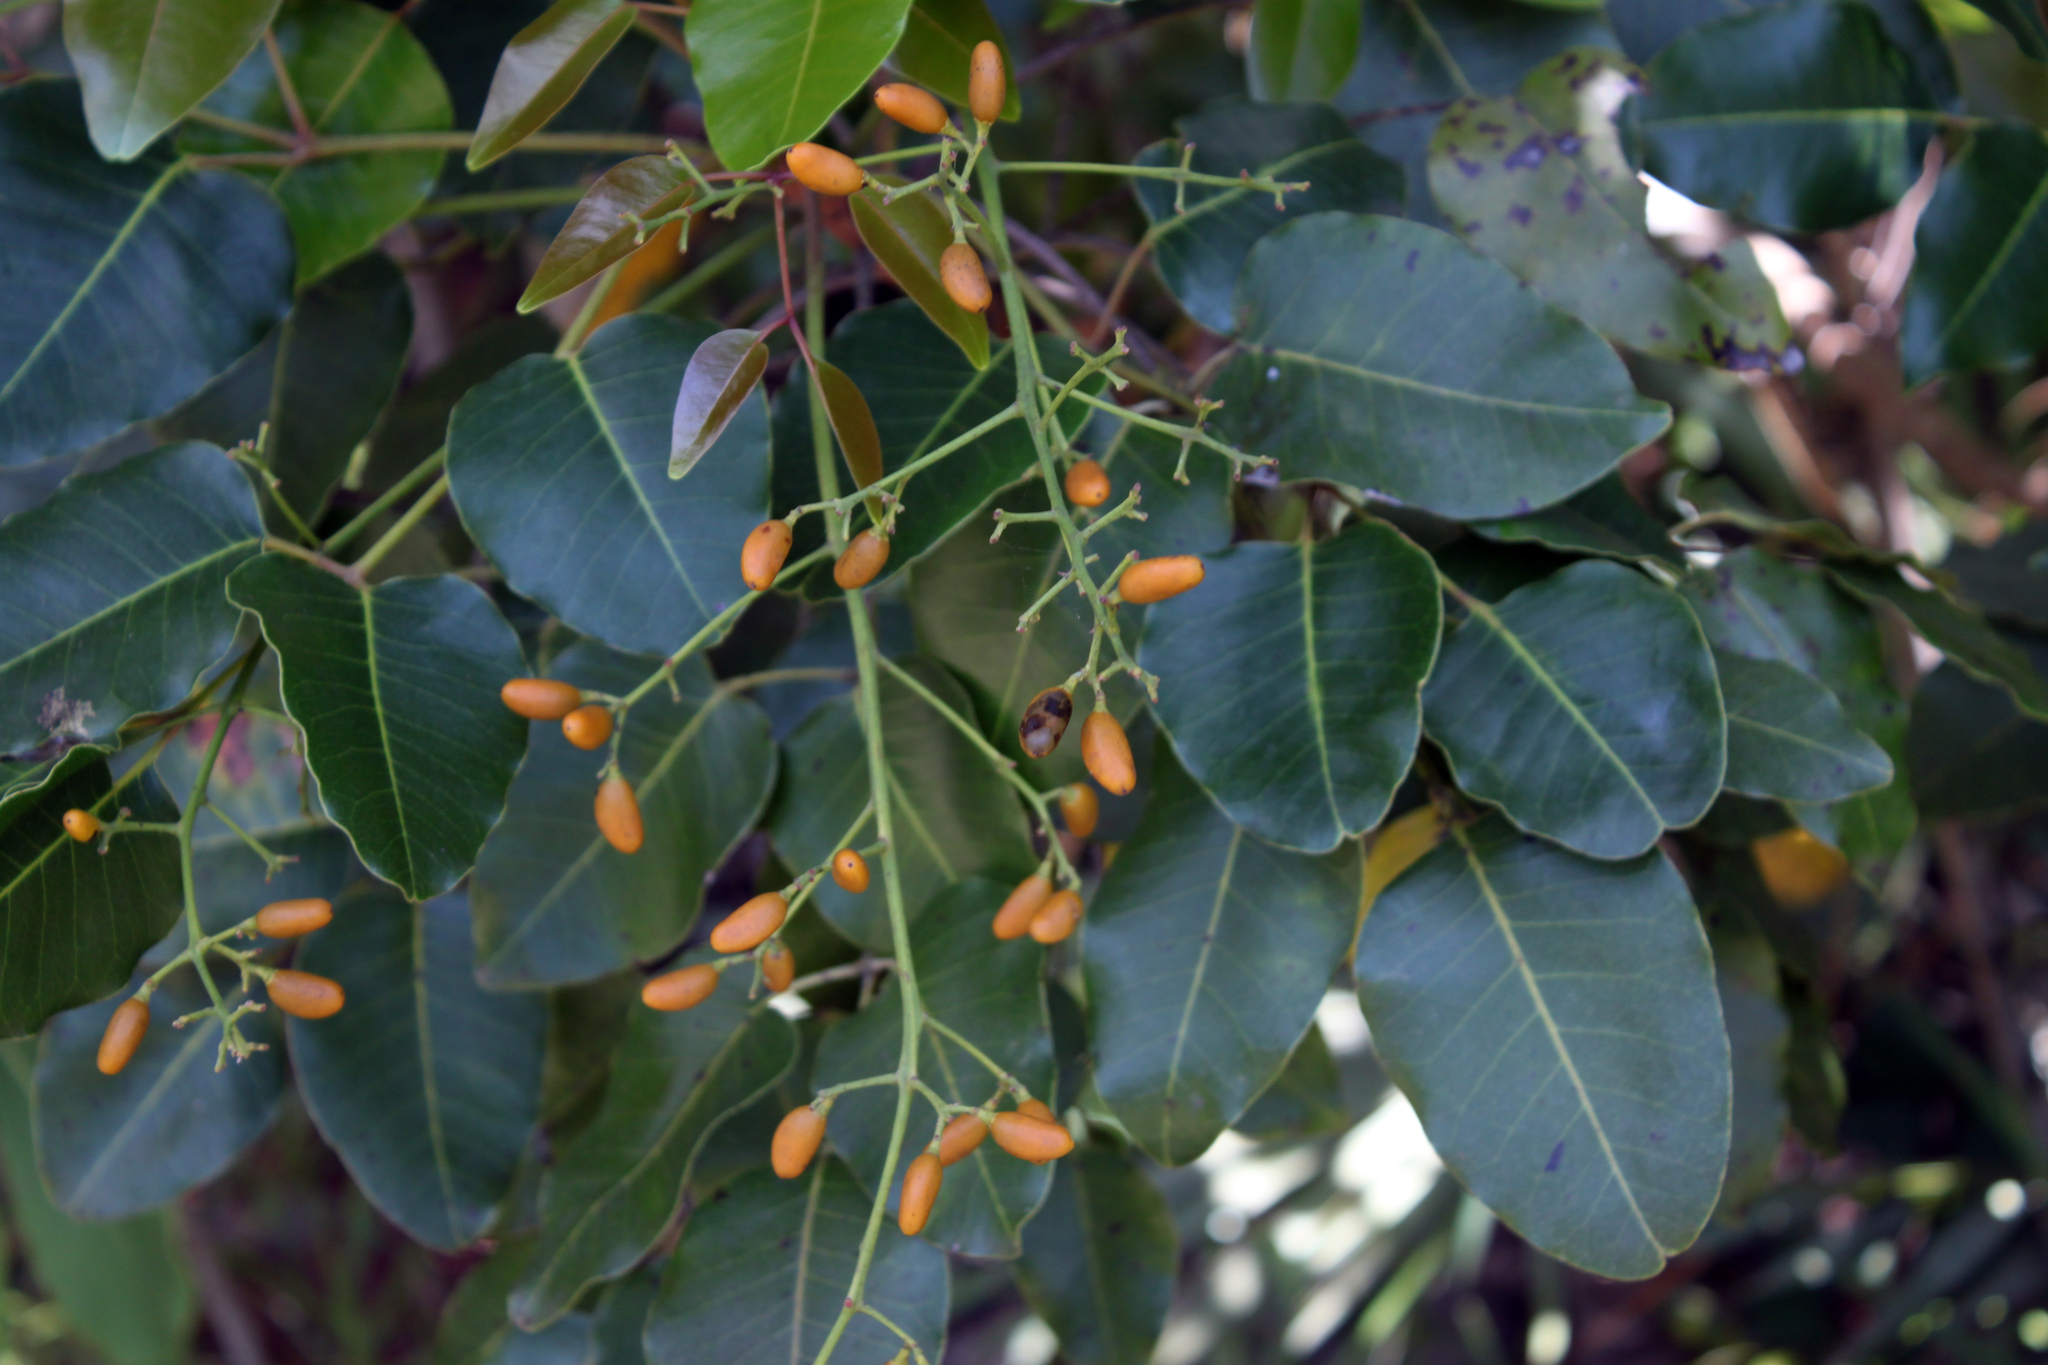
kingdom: Plantae
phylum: Tracheophyta
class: Magnoliopsida
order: Sapindales
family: Anacardiaceae
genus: Metopium
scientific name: Metopium toxiferum
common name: Florida poisontree
